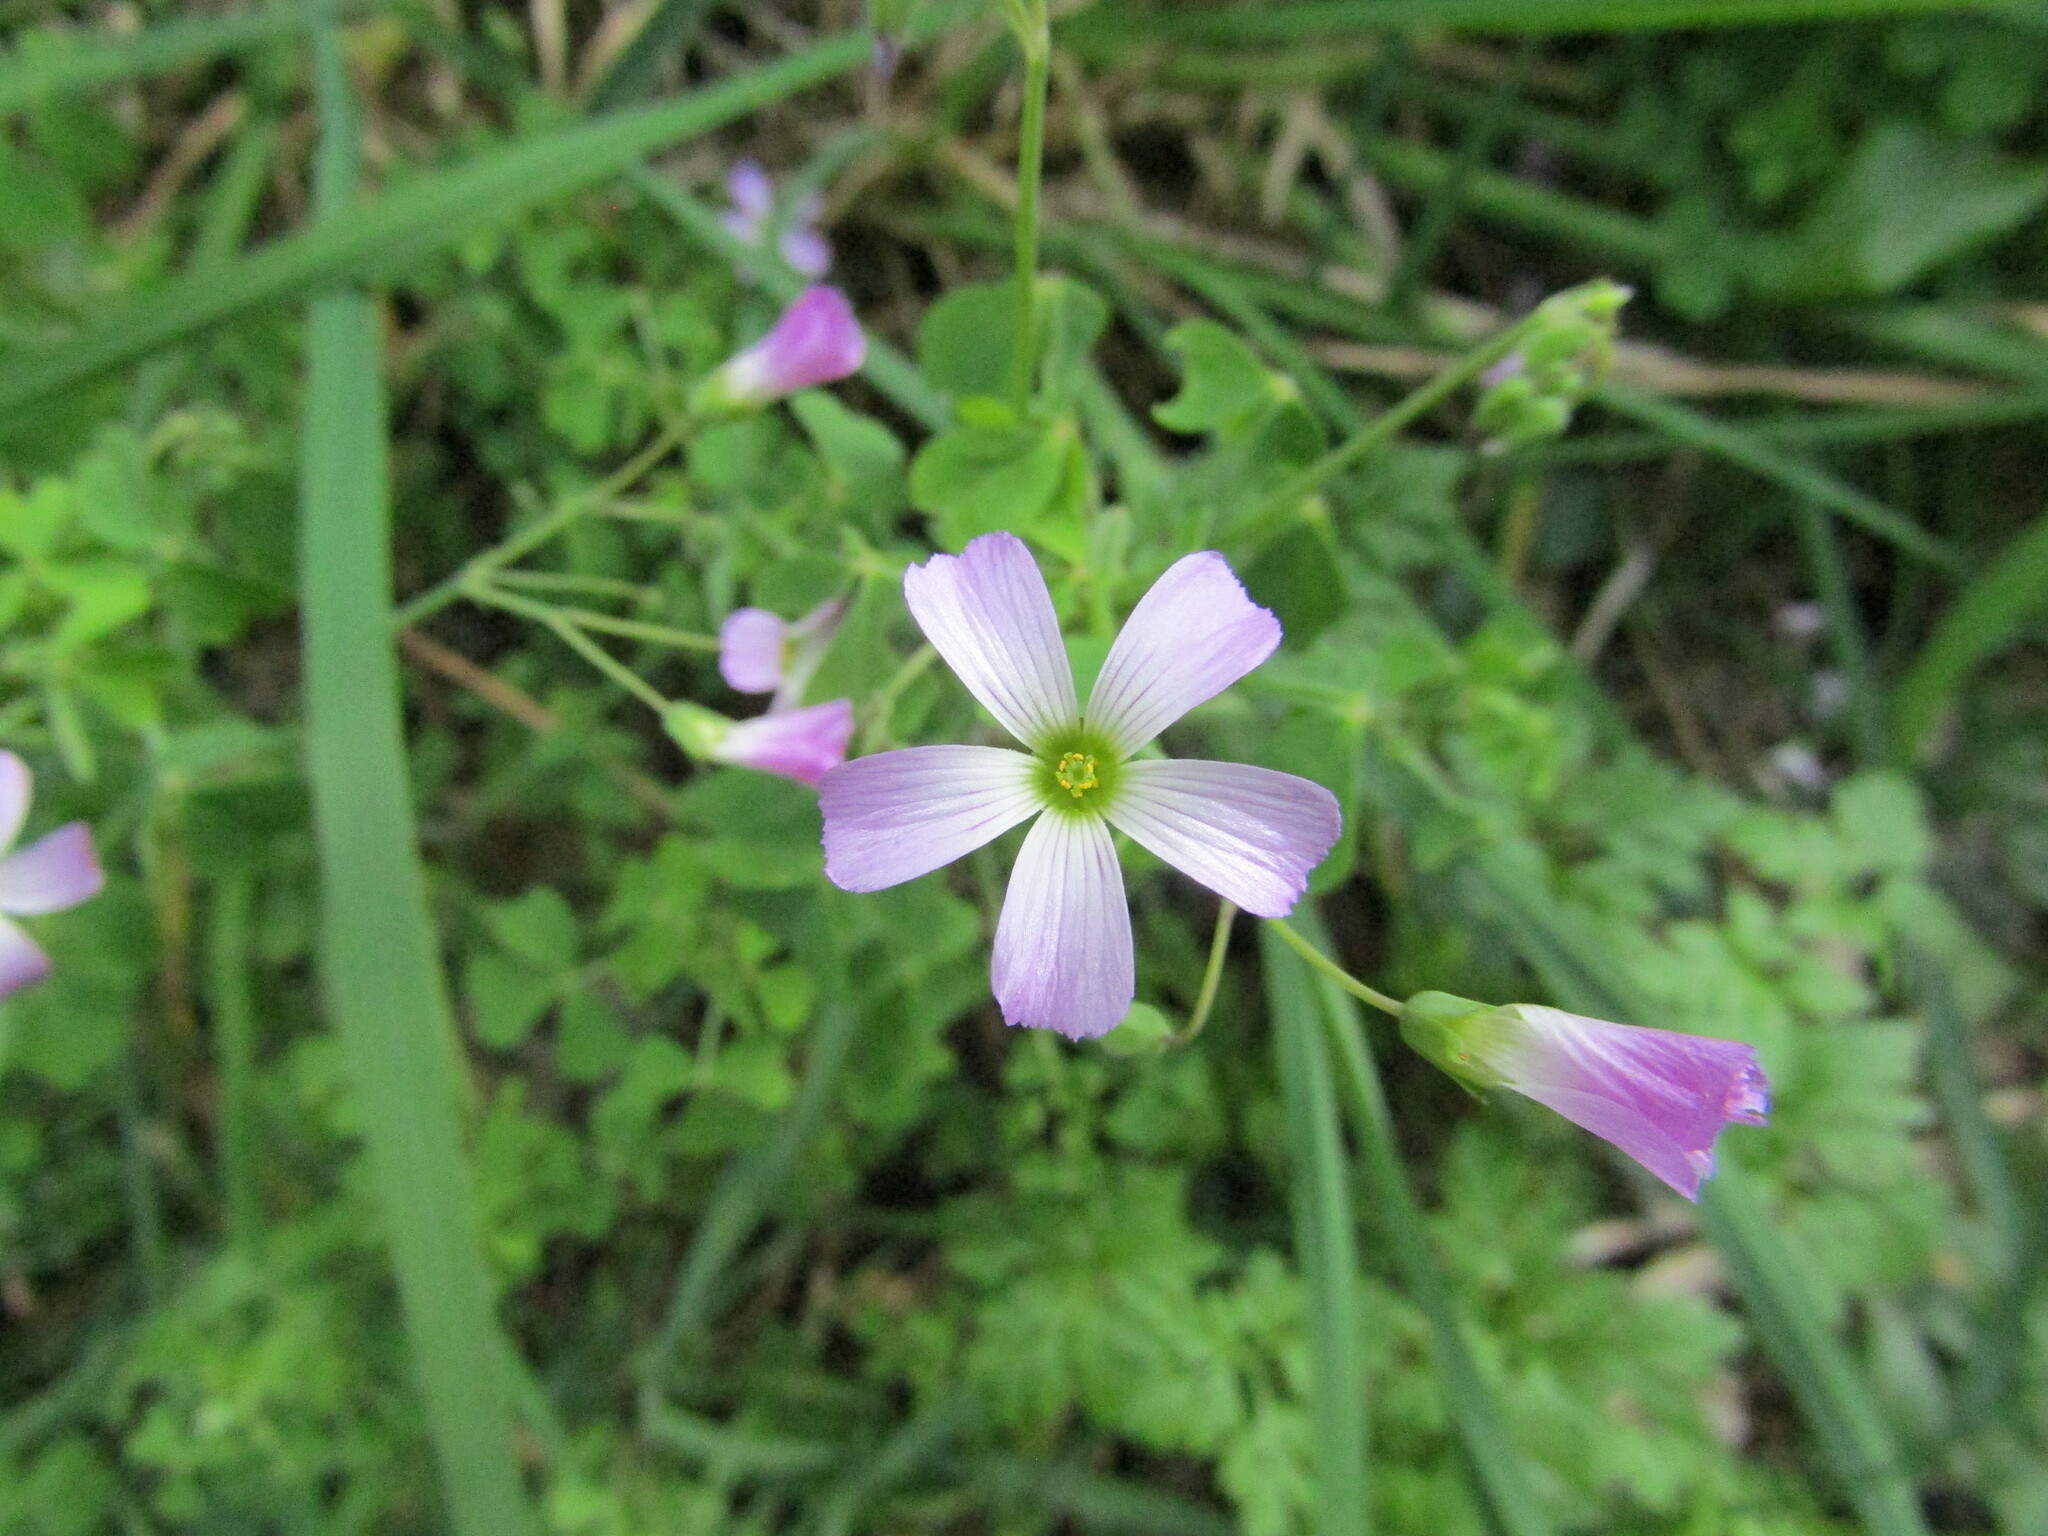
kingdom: Plantae
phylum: Tracheophyta
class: Magnoliopsida
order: Oxalidales
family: Oxalidaceae
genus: Oxalis
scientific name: Oxalis rosea
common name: Annual pink-sorrel
